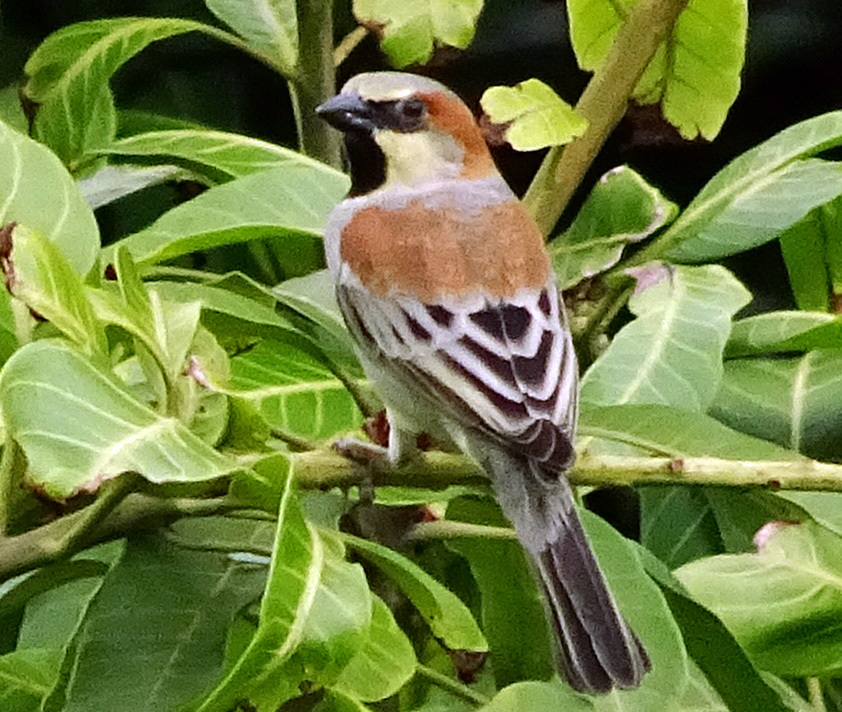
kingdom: Animalia
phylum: Chordata
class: Aves
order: Passeriformes
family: Passeridae
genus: Passer
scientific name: Passer flaveolus
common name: Plain-backed sparrow
